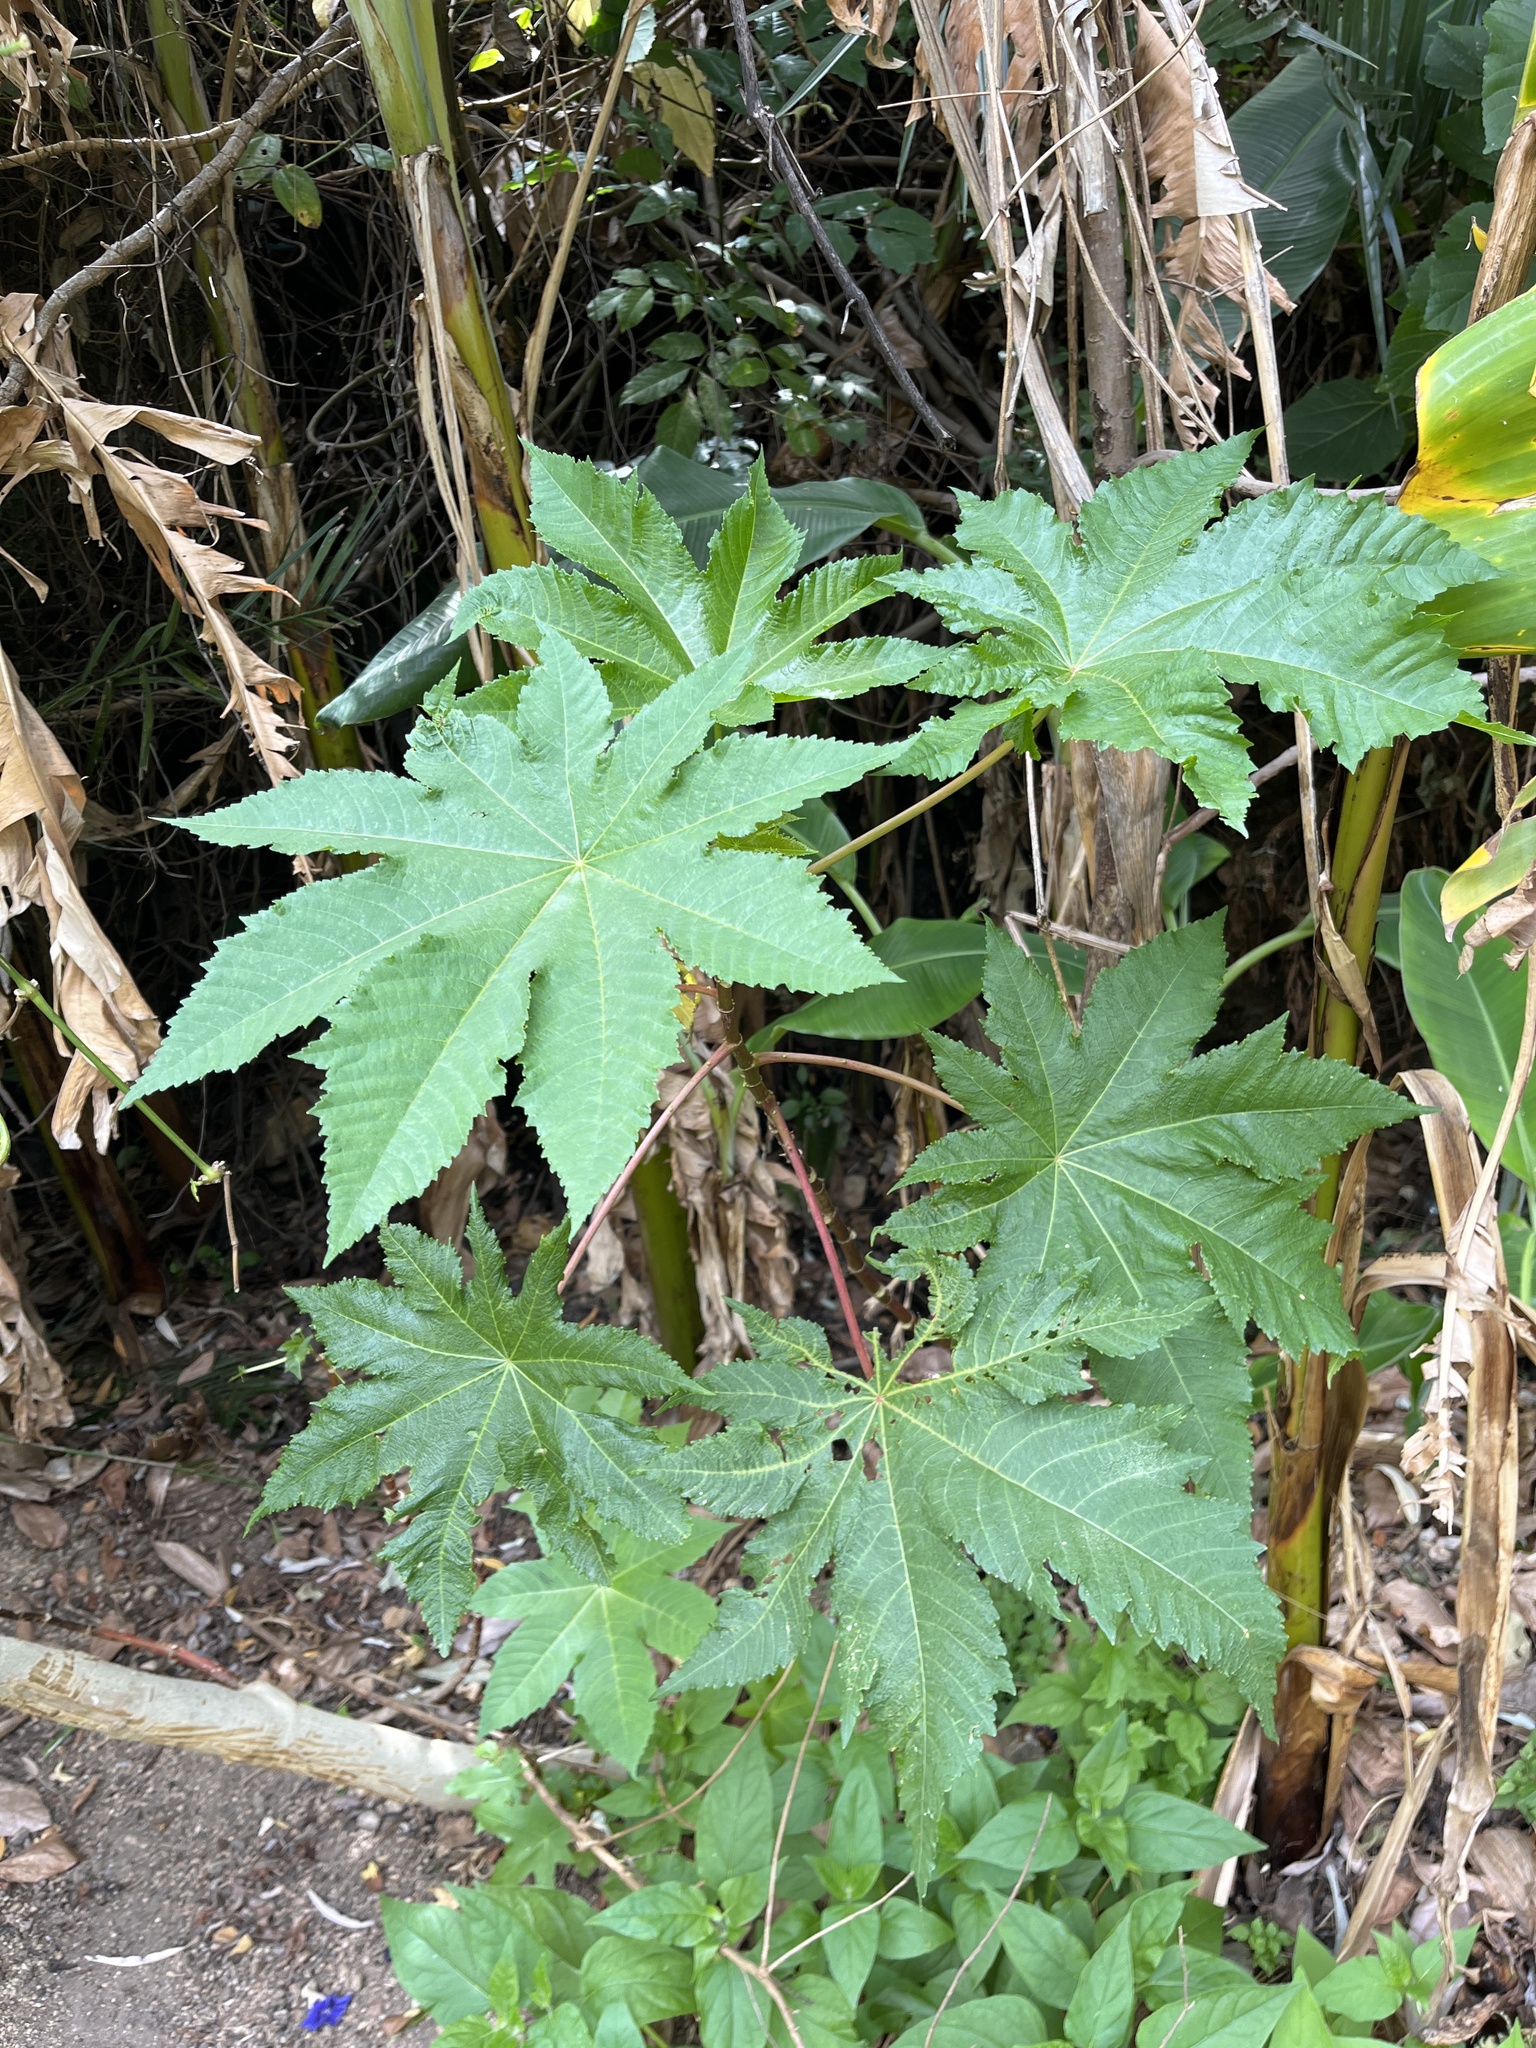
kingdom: Plantae
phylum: Tracheophyta
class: Magnoliopsida
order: Malpighiales
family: Euphorbiaceae
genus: Ricinus
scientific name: Ricinus communis
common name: Castor-oil-plant
